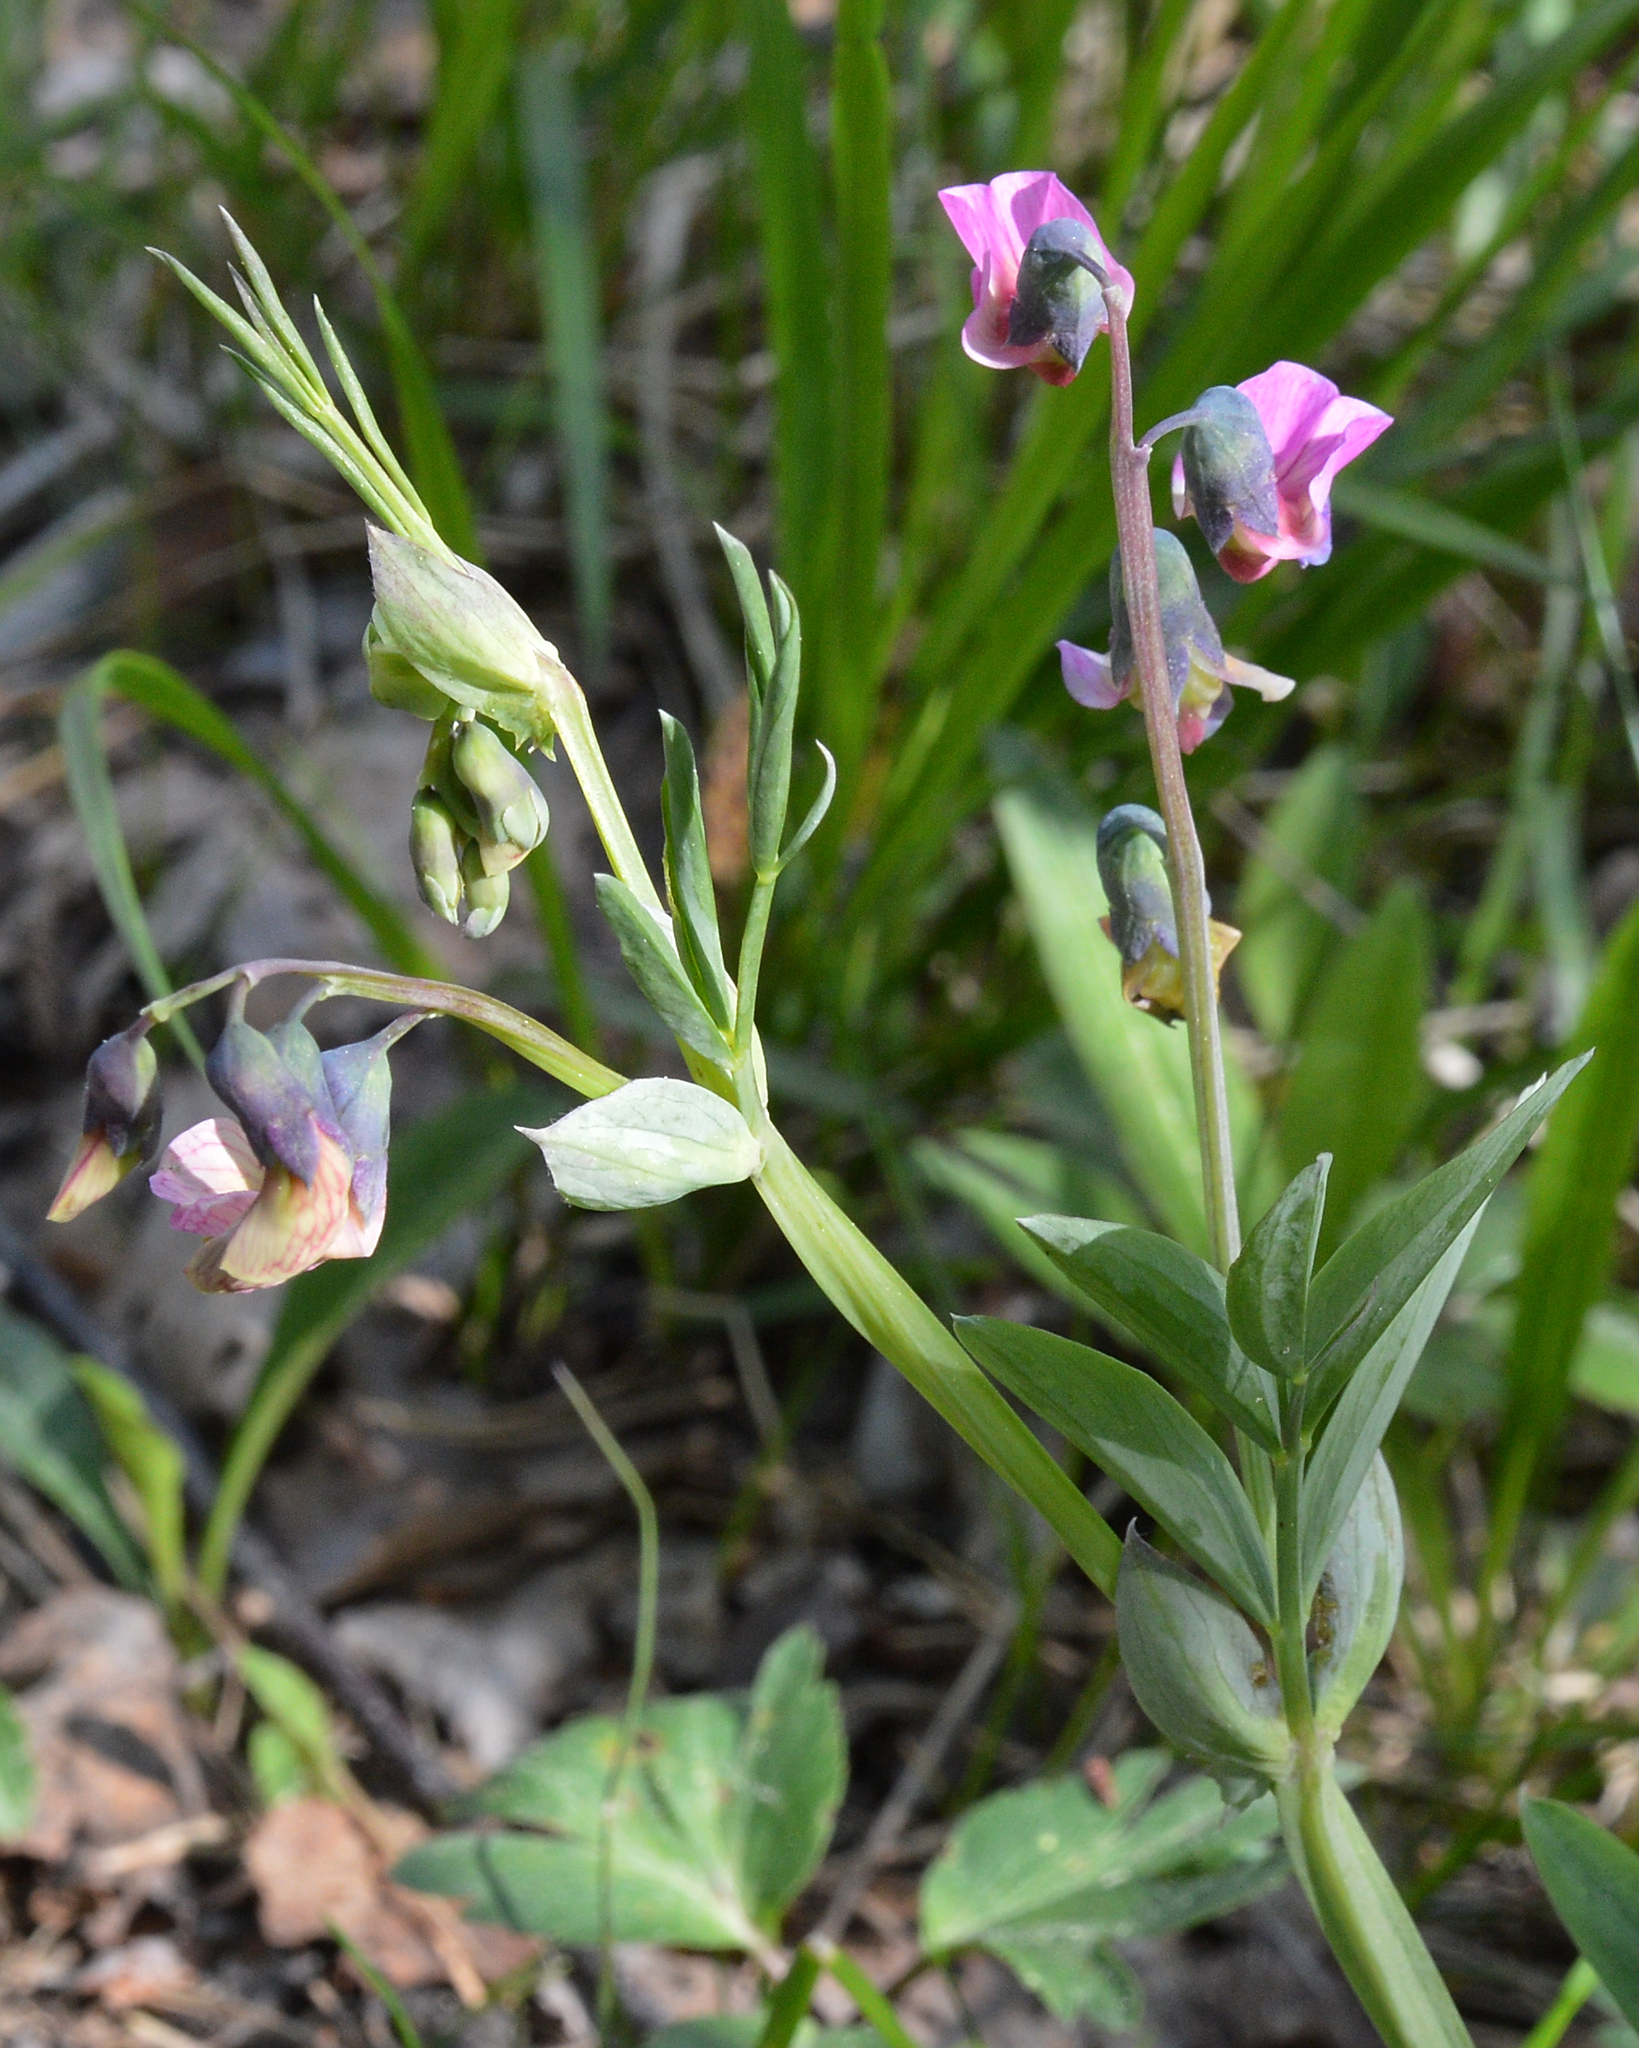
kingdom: Plantae
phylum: Tracheophyta
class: Magnoliopsida
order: Fabales
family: Fabaceae
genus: Lathyrus
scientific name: Lathyrus linifolius
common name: Bitter-vetch
